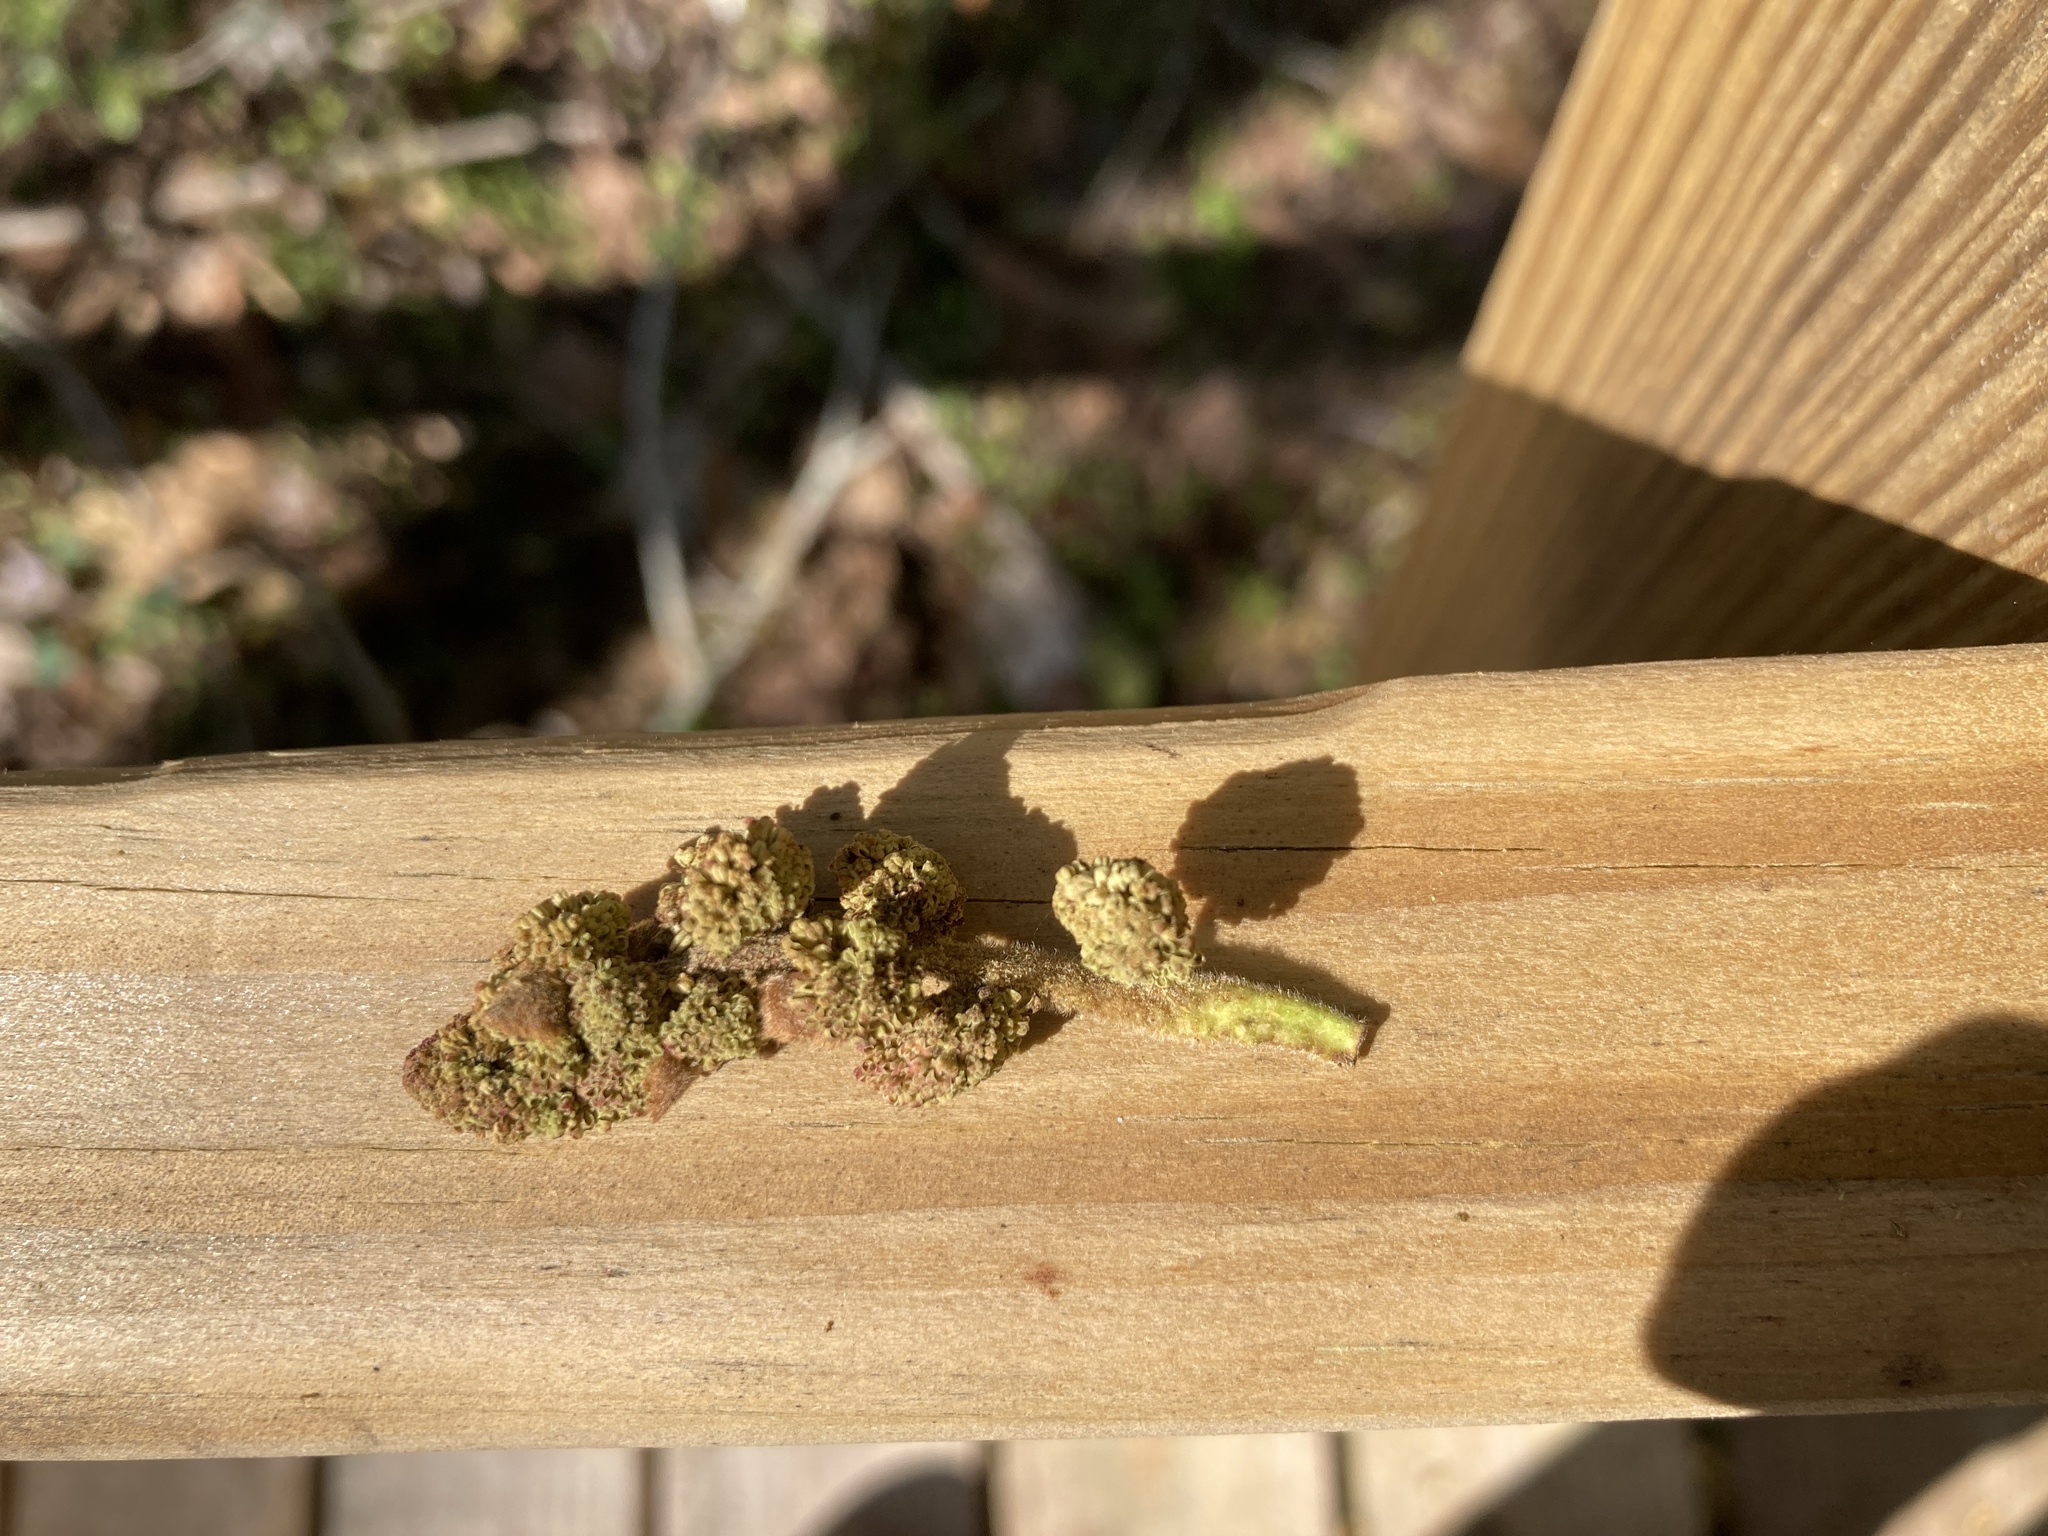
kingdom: Plantae
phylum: Tracheophyta
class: Magnoliopsida
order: Saxifragales
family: Altingiaceae
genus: Liquidambar
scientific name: Liquidambar styraciflua
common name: Sweet gum
